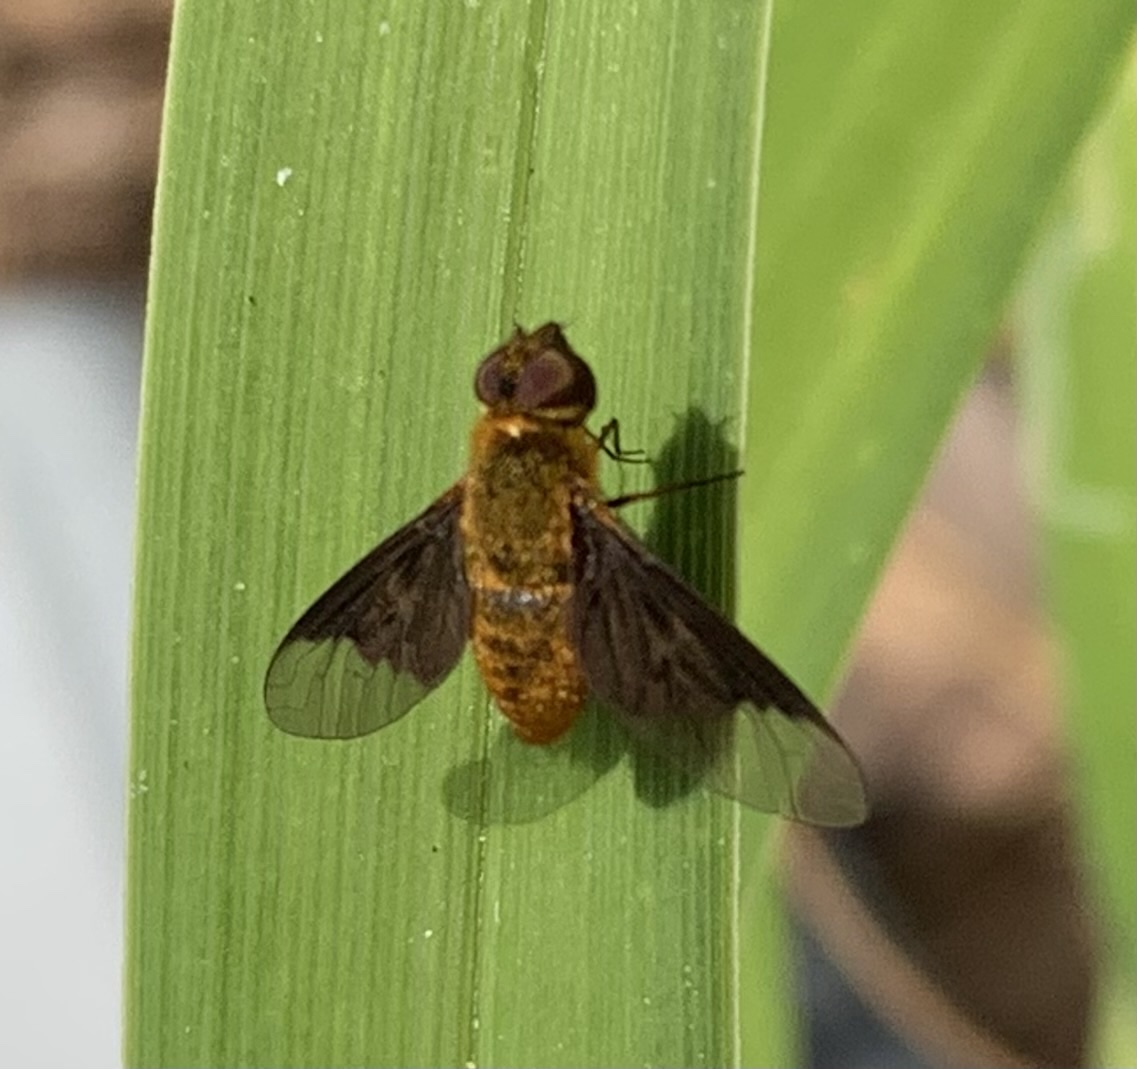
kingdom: Animalia
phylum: Arthropoda
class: Insecta
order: Diptera
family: Bombyliidae
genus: Chrysanthrax
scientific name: Chrysanthrax cypris
